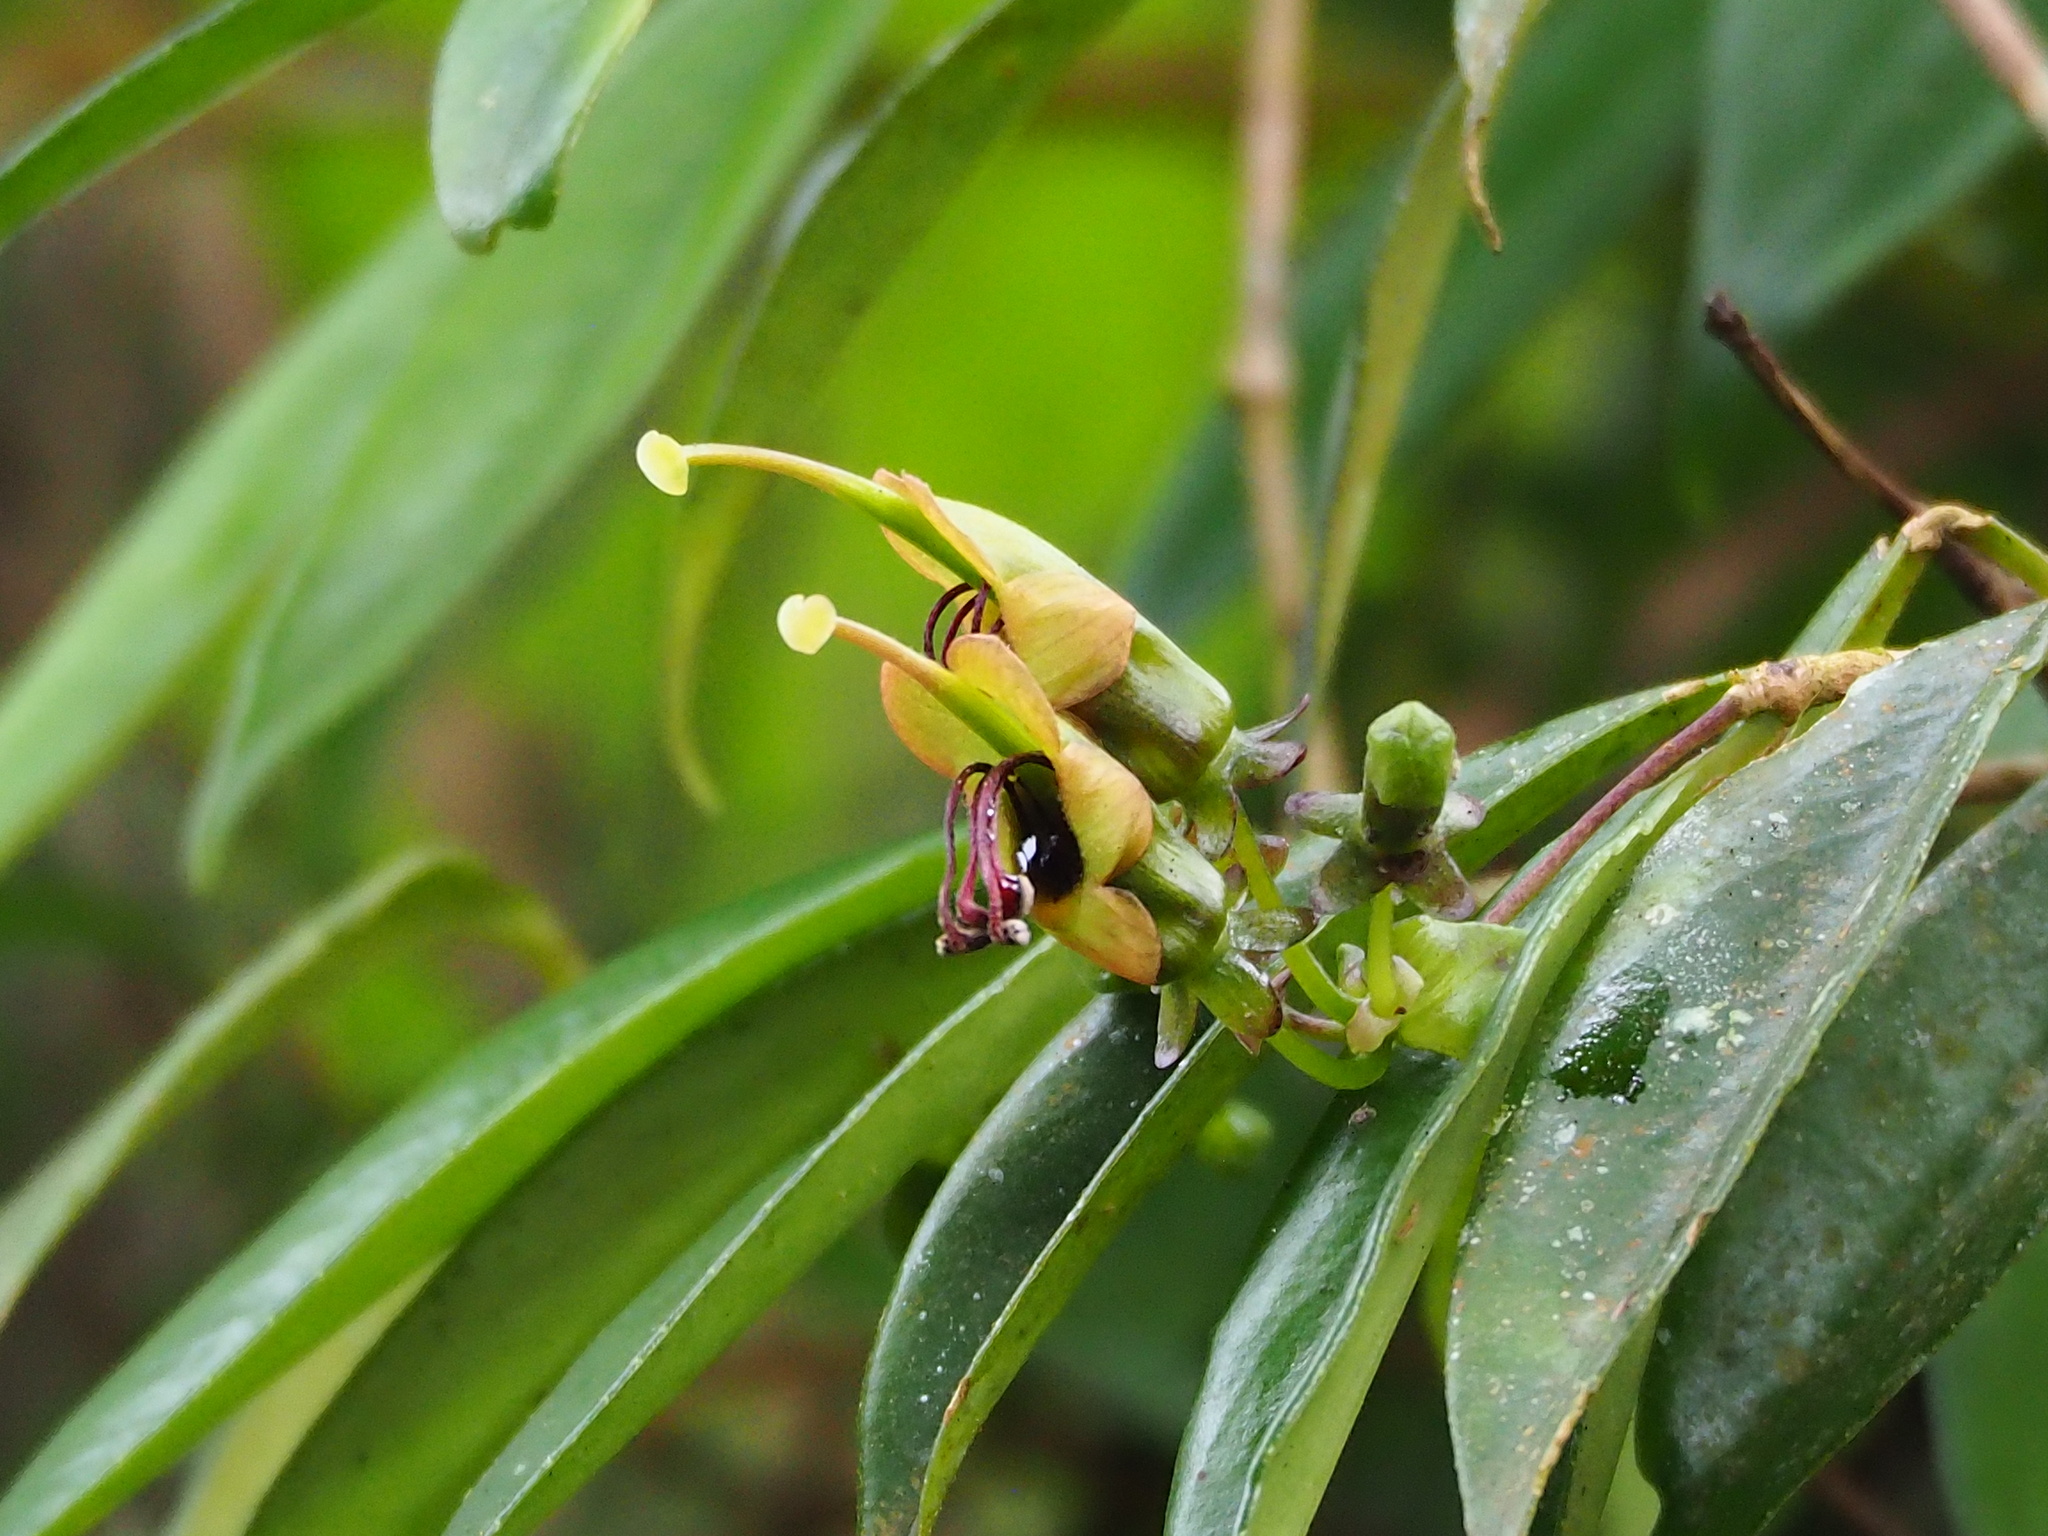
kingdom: Plantae
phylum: Tracheophyta
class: Magnoliopsida
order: Lamiales
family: Gesneriaceae
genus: Aeschynanthus
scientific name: Aeschynanthus acuminatus
